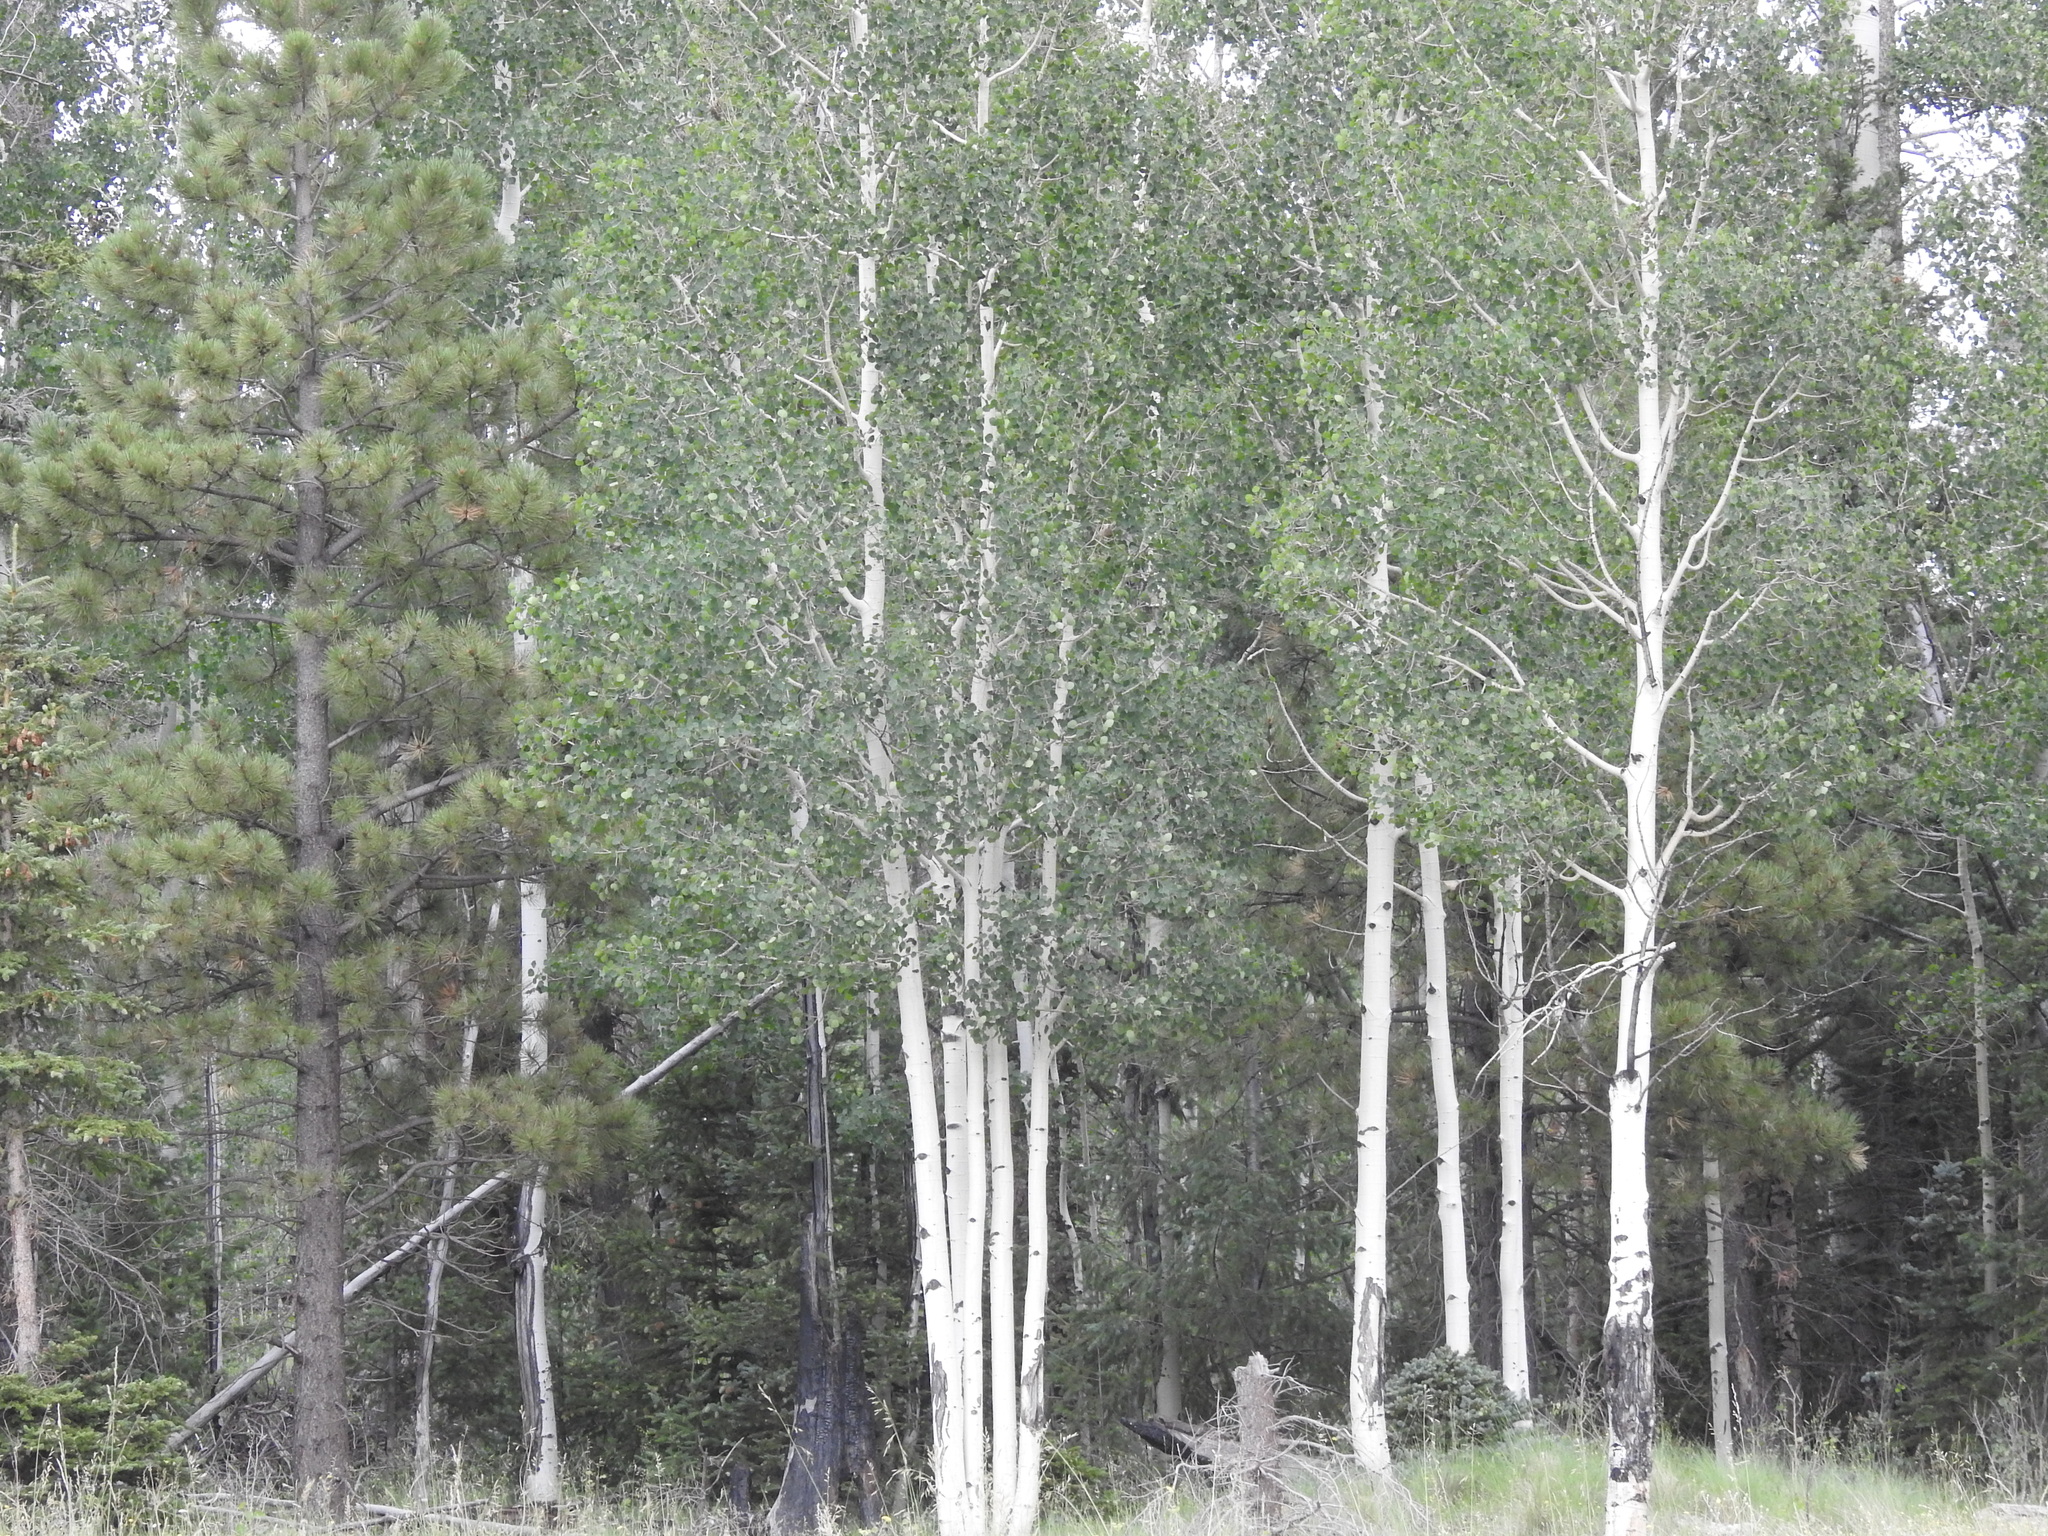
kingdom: Plantae
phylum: Tracheophyta
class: Magnoliopsida
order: Malpighiales
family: Salicaceae
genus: Populus
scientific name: Populus tremuloides
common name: Quaking aspen
